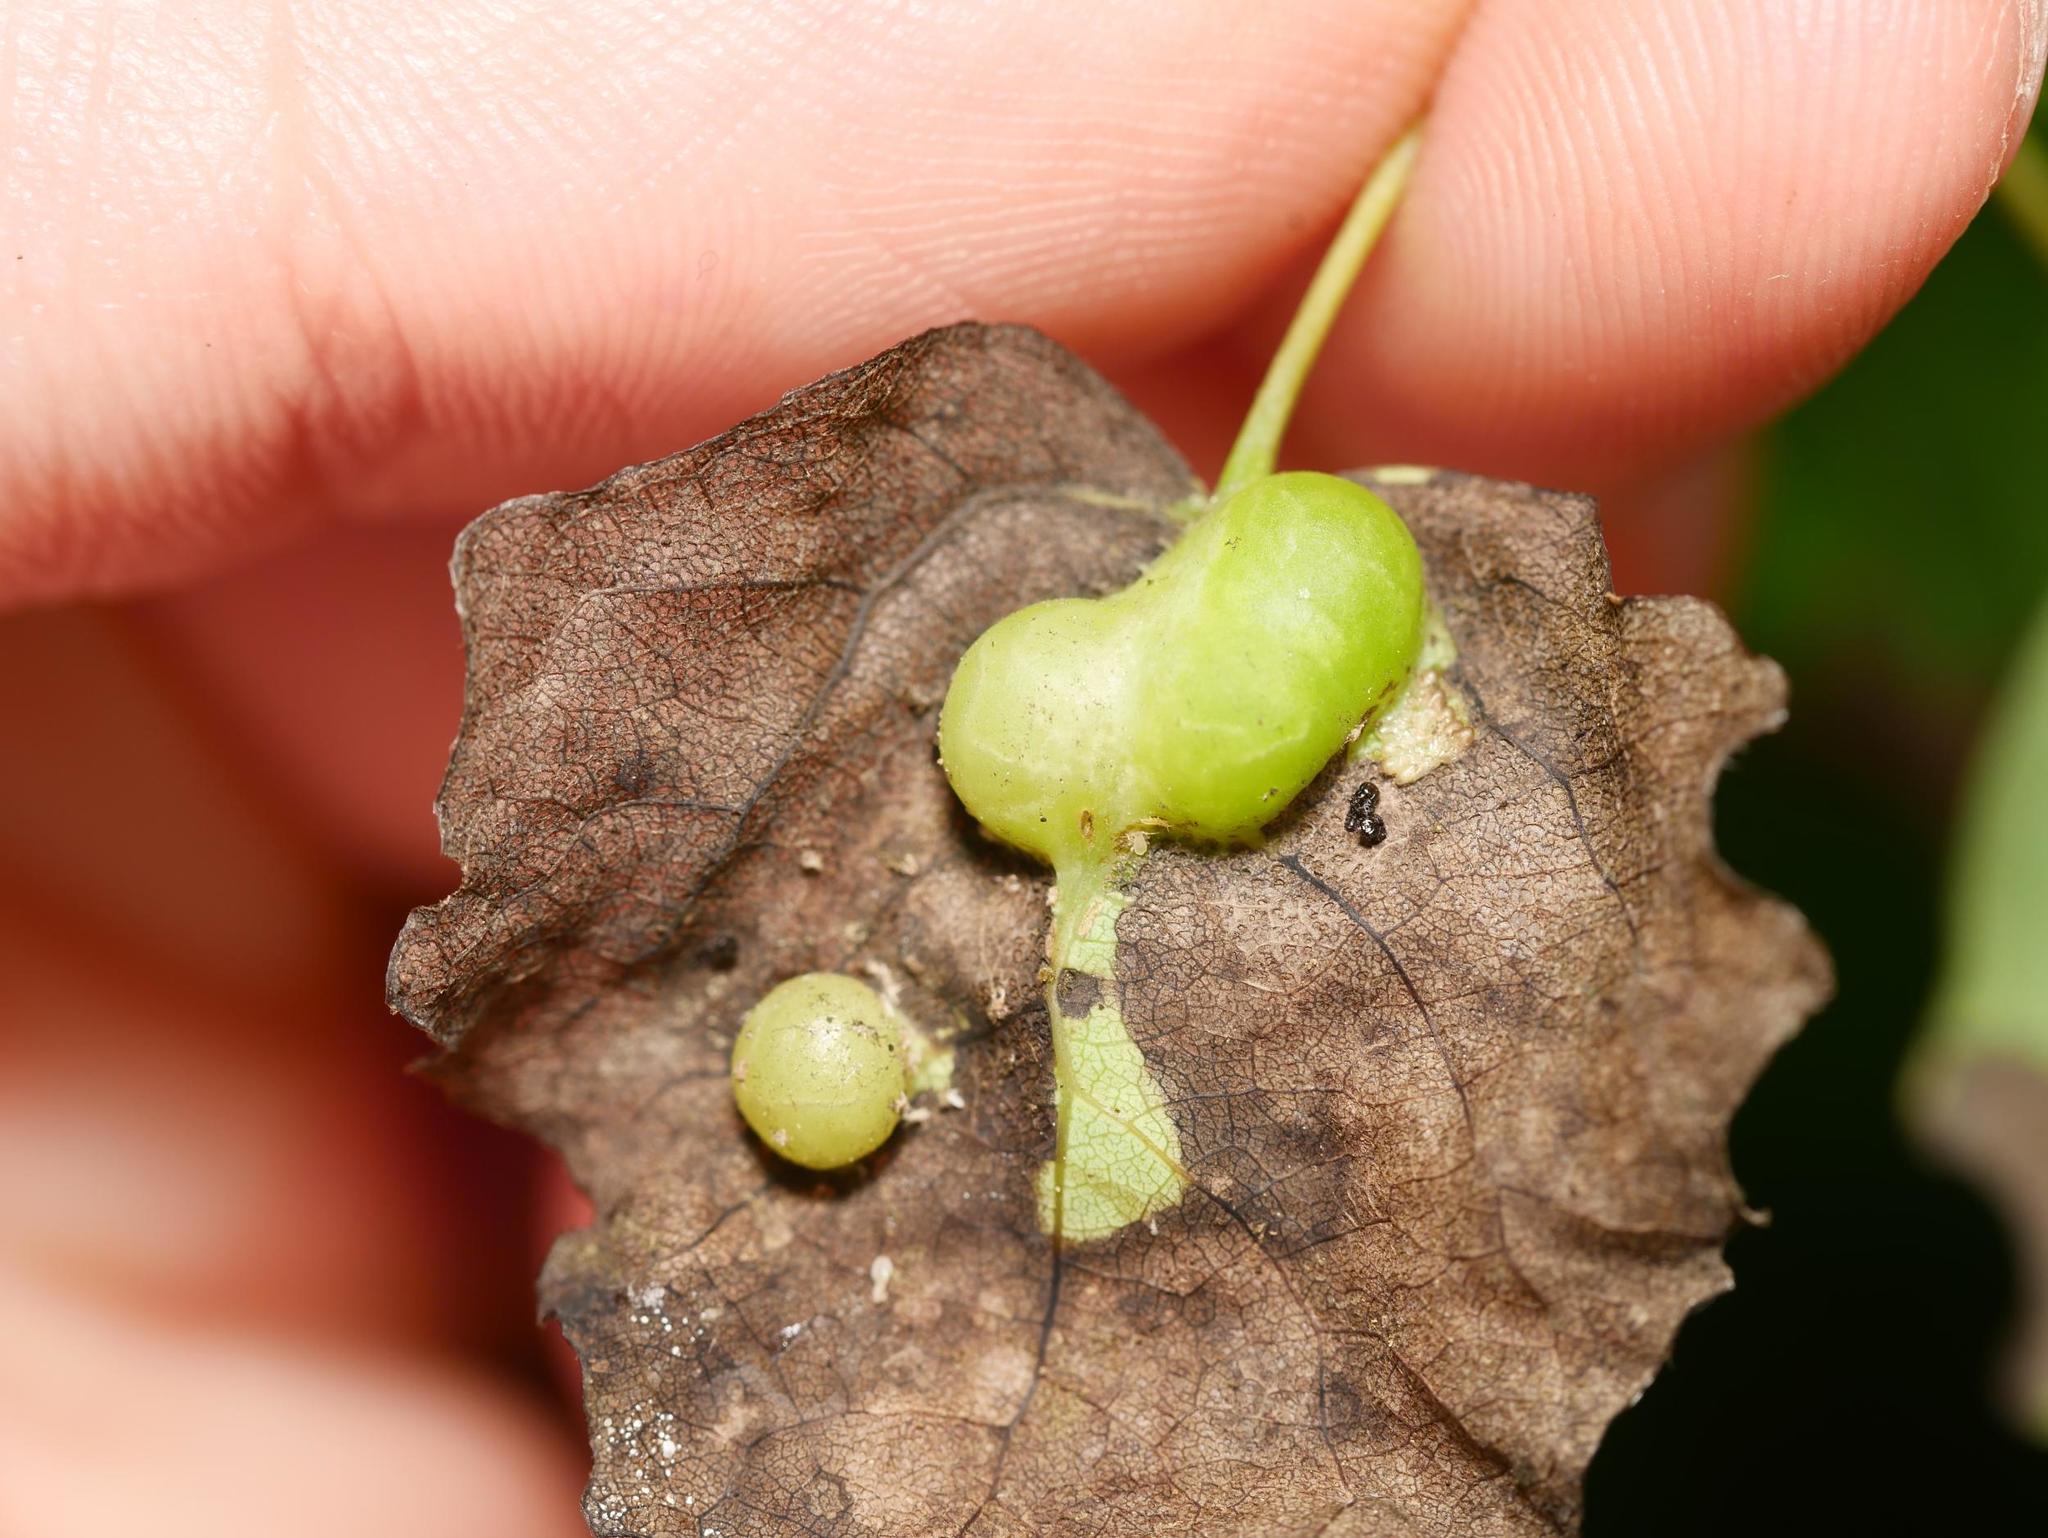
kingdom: Animalia
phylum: Arthropoda
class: Insecta
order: Diptera
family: Cecidomyiidae
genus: Harmandiola
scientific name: Harmandiola cavernosa
